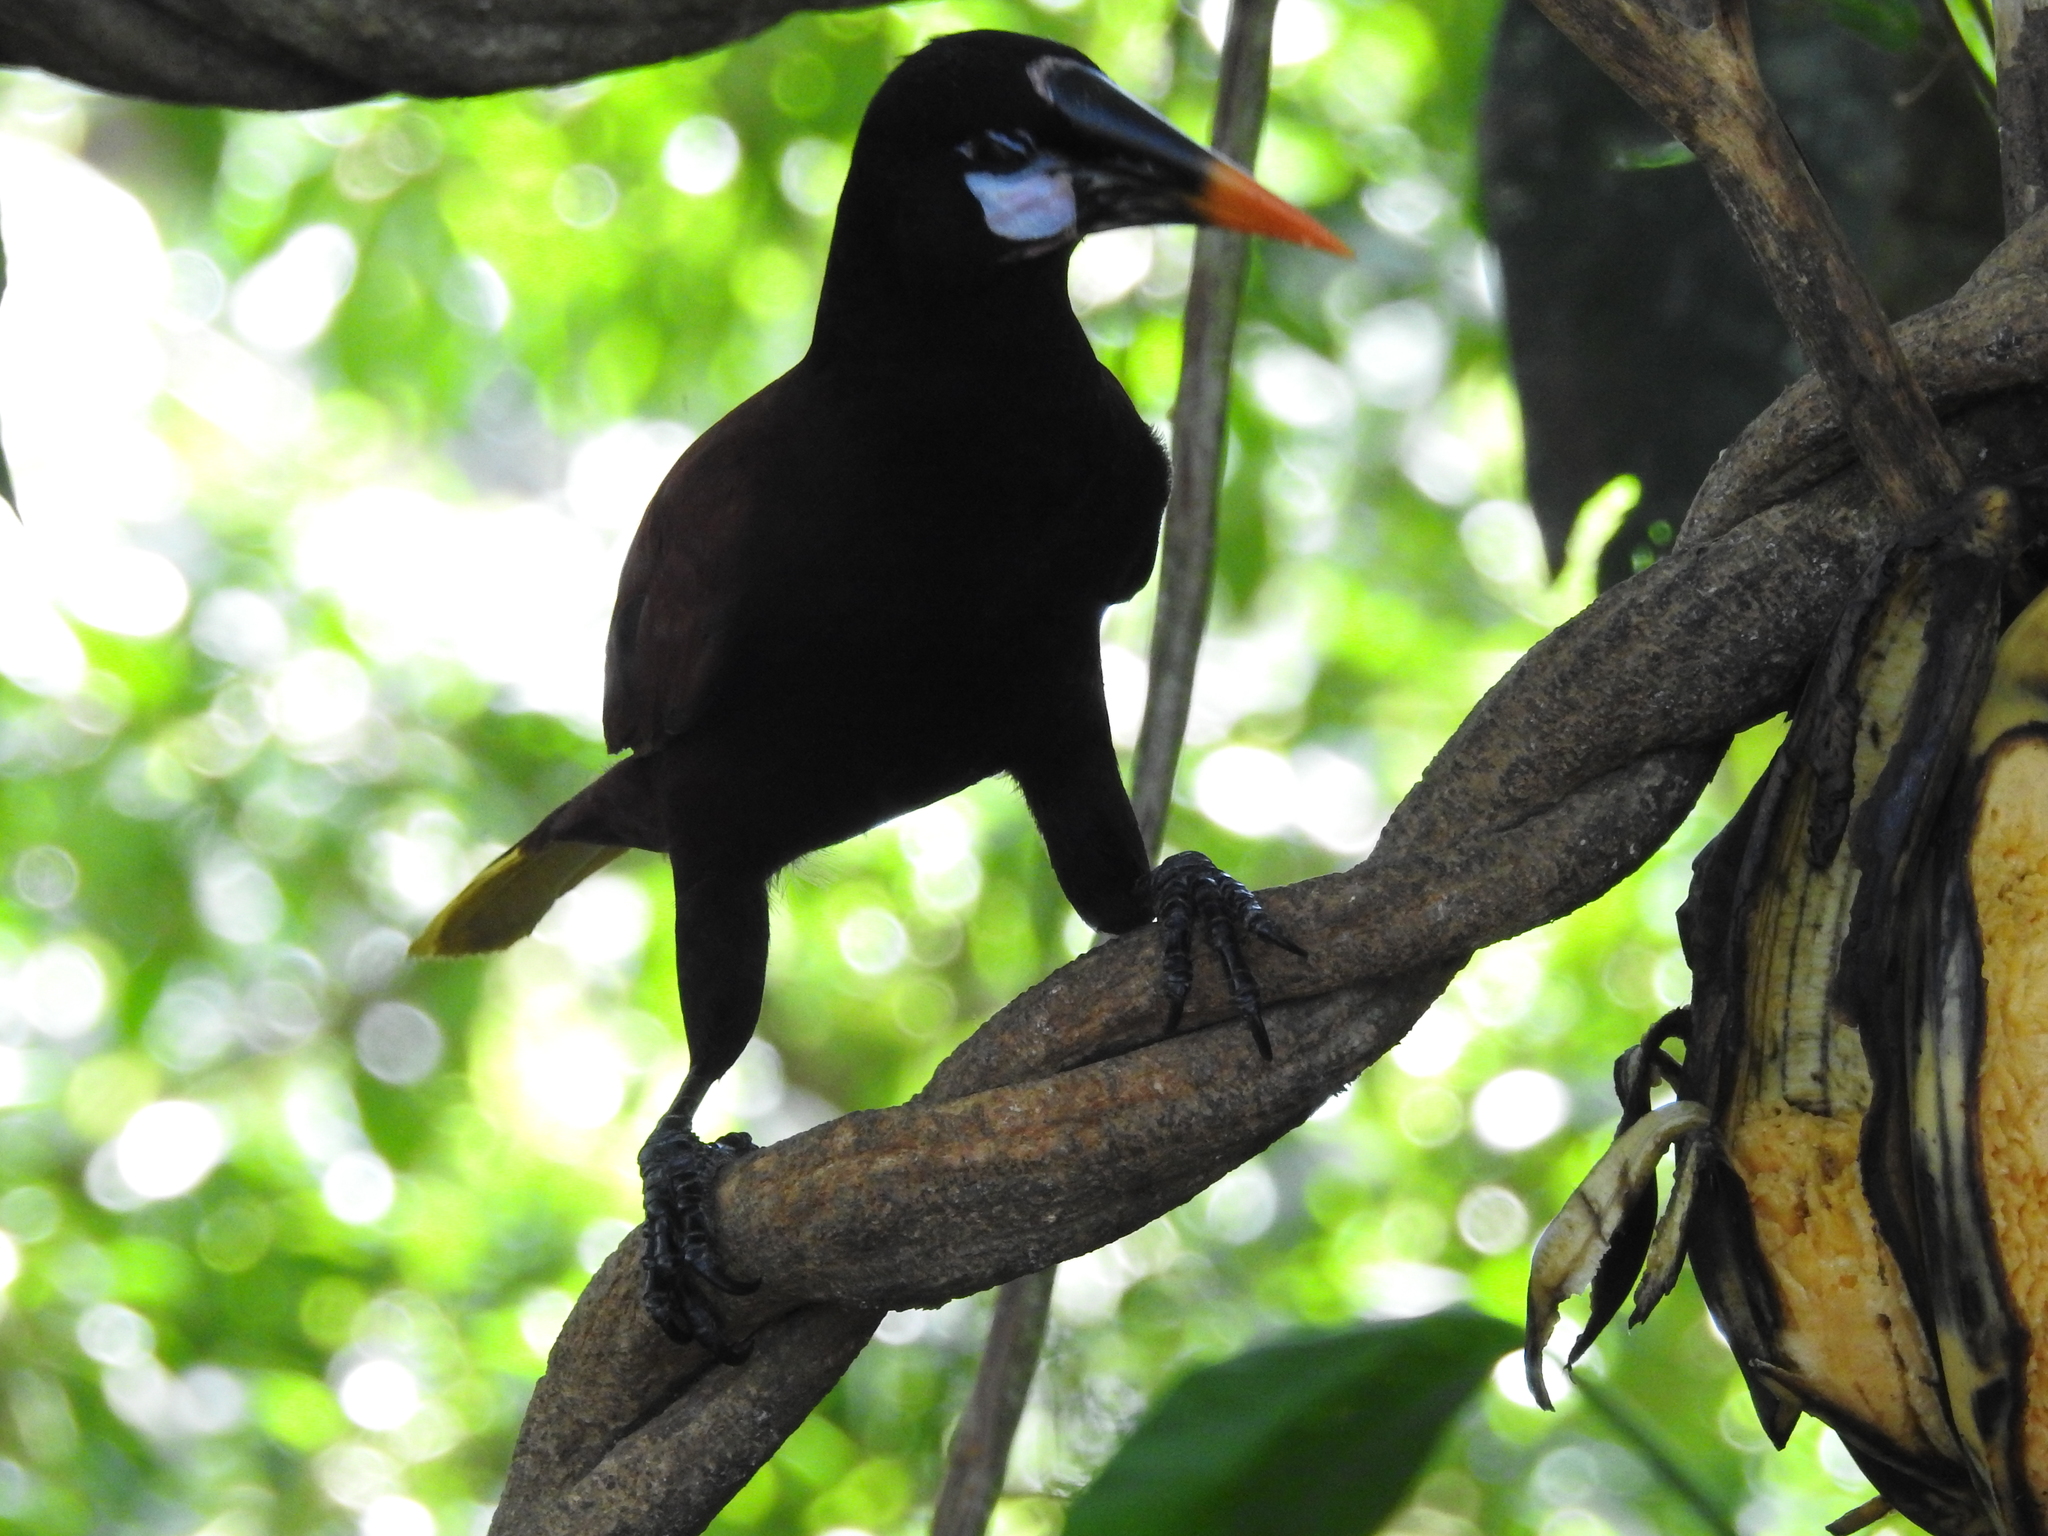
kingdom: Animalia
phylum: Chordata
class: Aves
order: Passeriformes
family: Icteridae
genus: Psarocolius
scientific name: Psarocolius montezuma
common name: Montezuma oropendola
